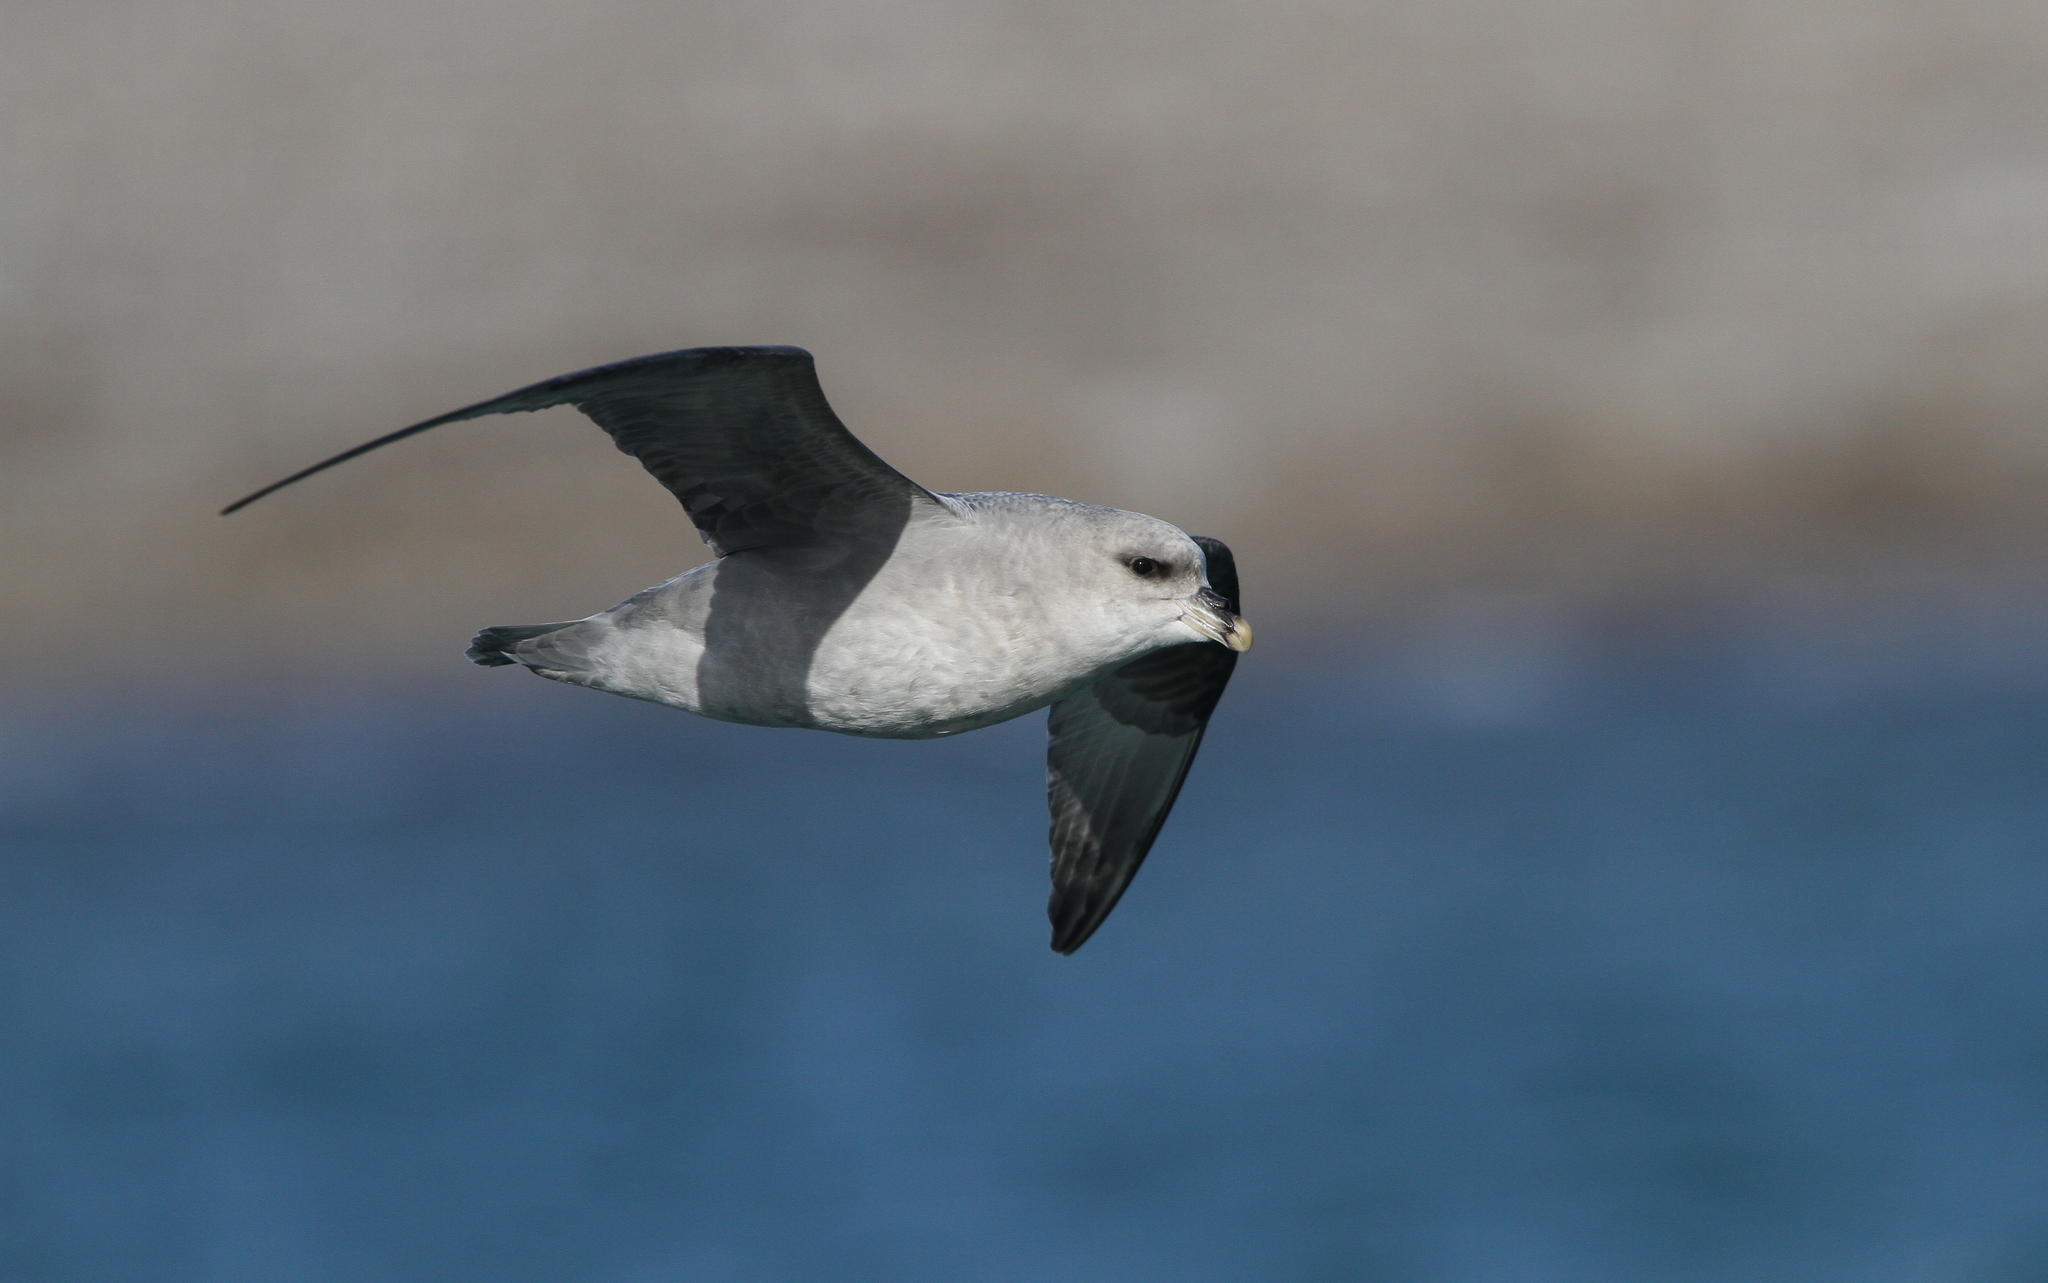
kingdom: Animalia
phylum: Chordata
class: Aves
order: Procellariiformes
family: Procellariidae
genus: Fulmarus
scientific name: Fulmarus glacialis
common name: Northern fulmar
